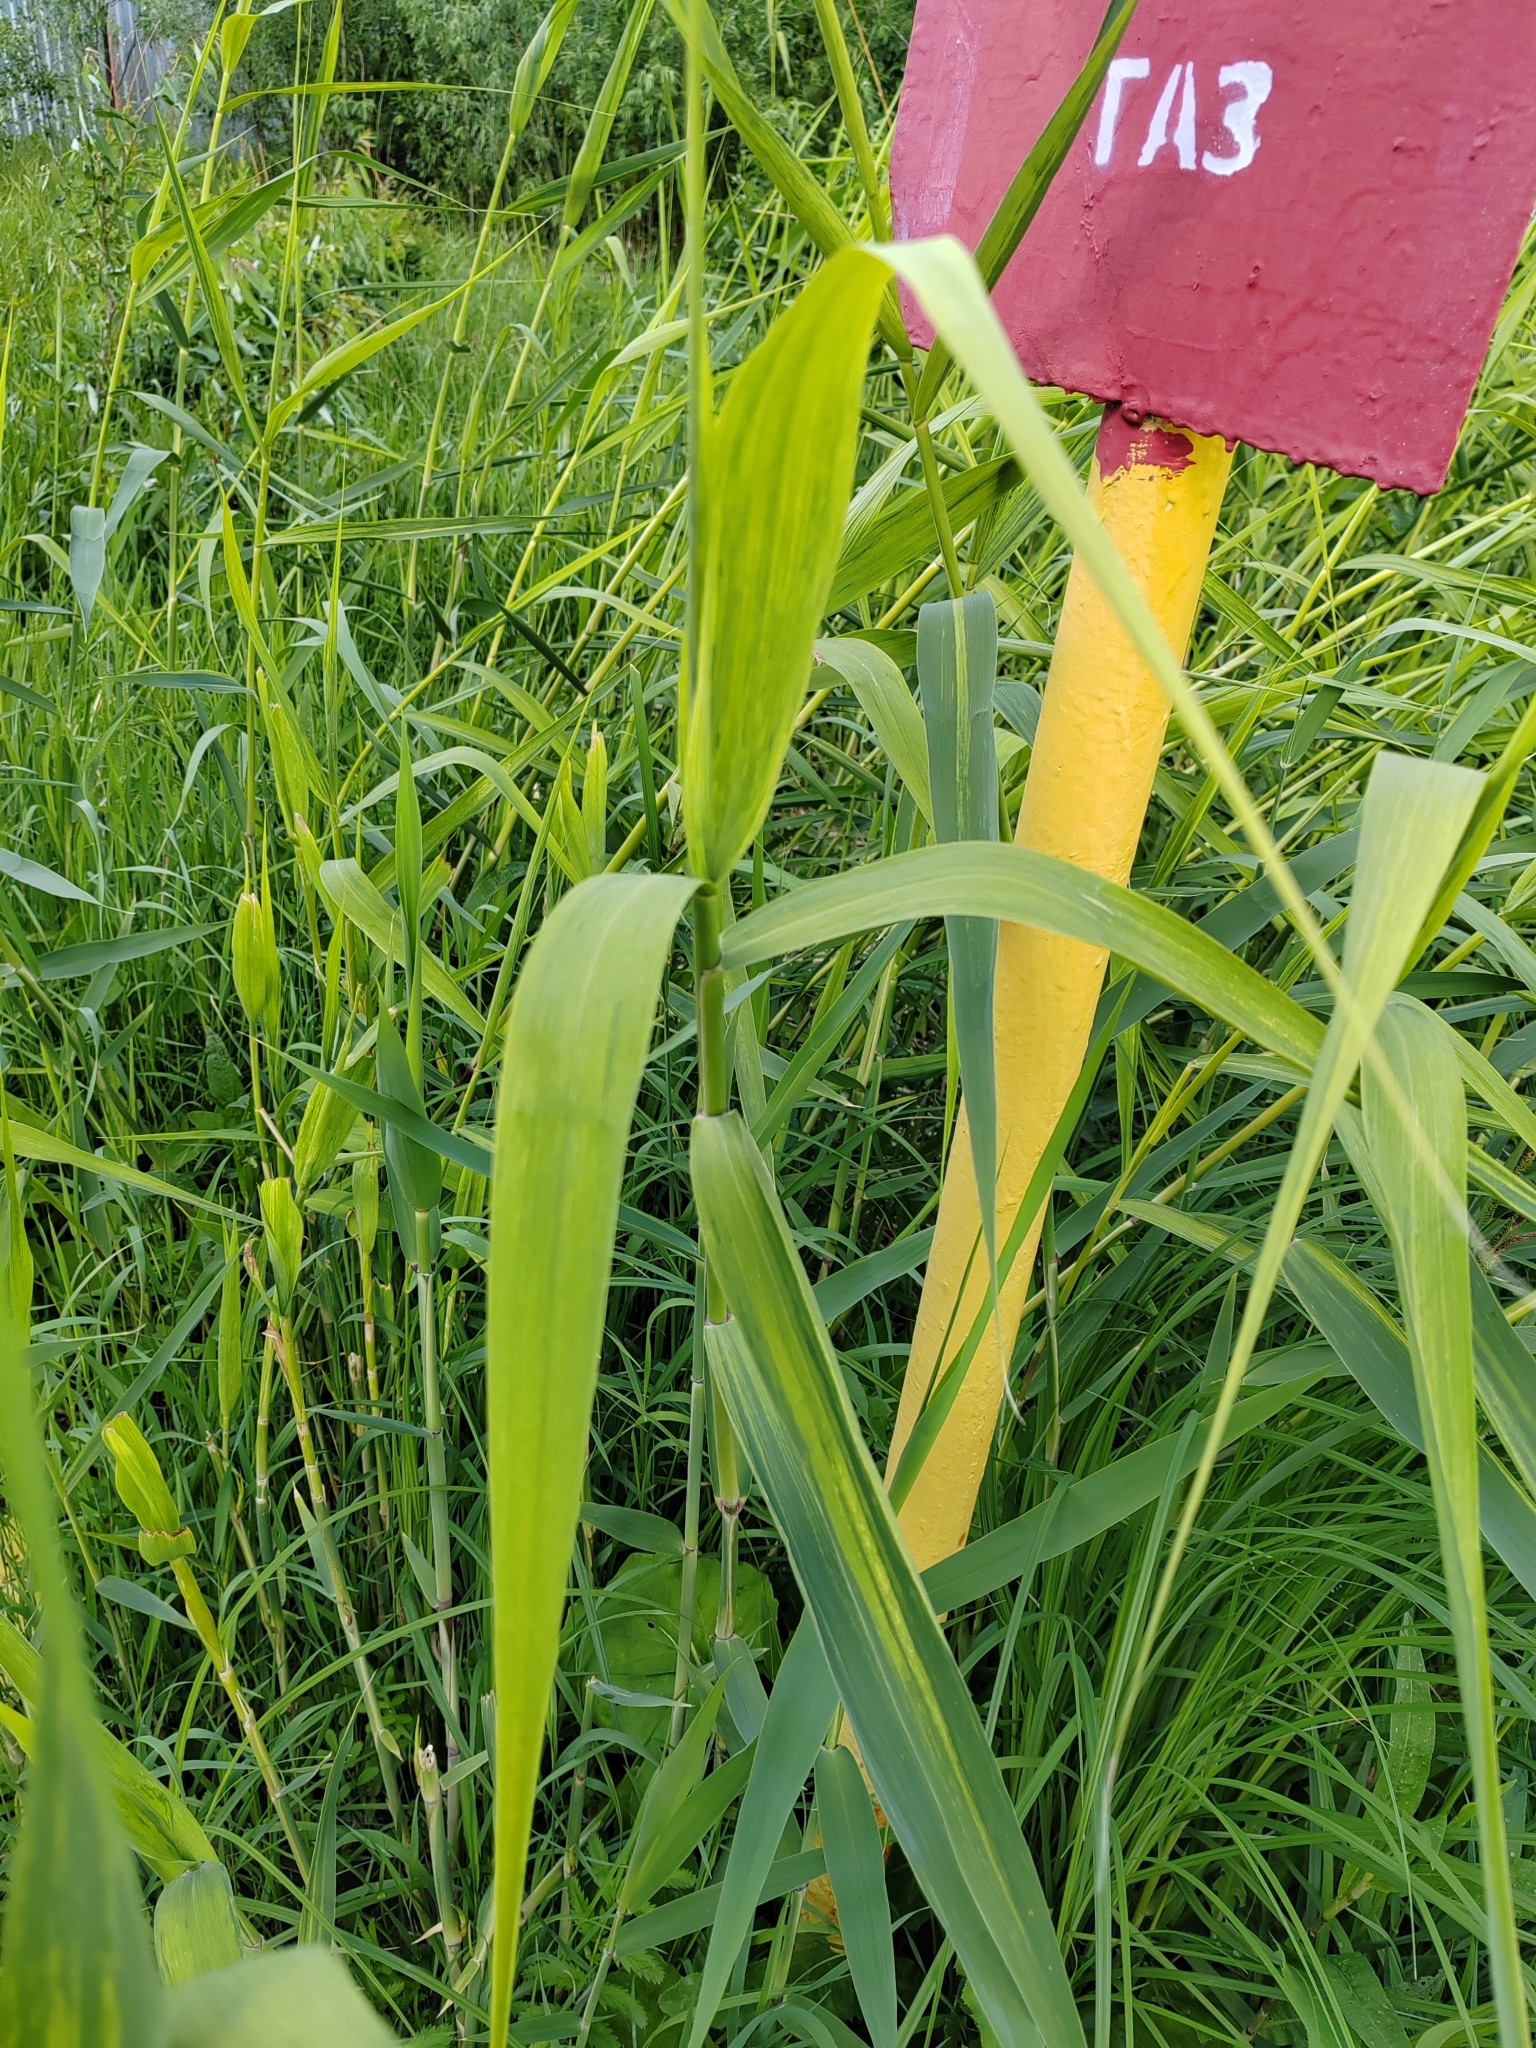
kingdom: Plantae
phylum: Tracheophyta
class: Liliopsida
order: Poales
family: Poaceae
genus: Phragmites
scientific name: Phragmites australis
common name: Common reed
